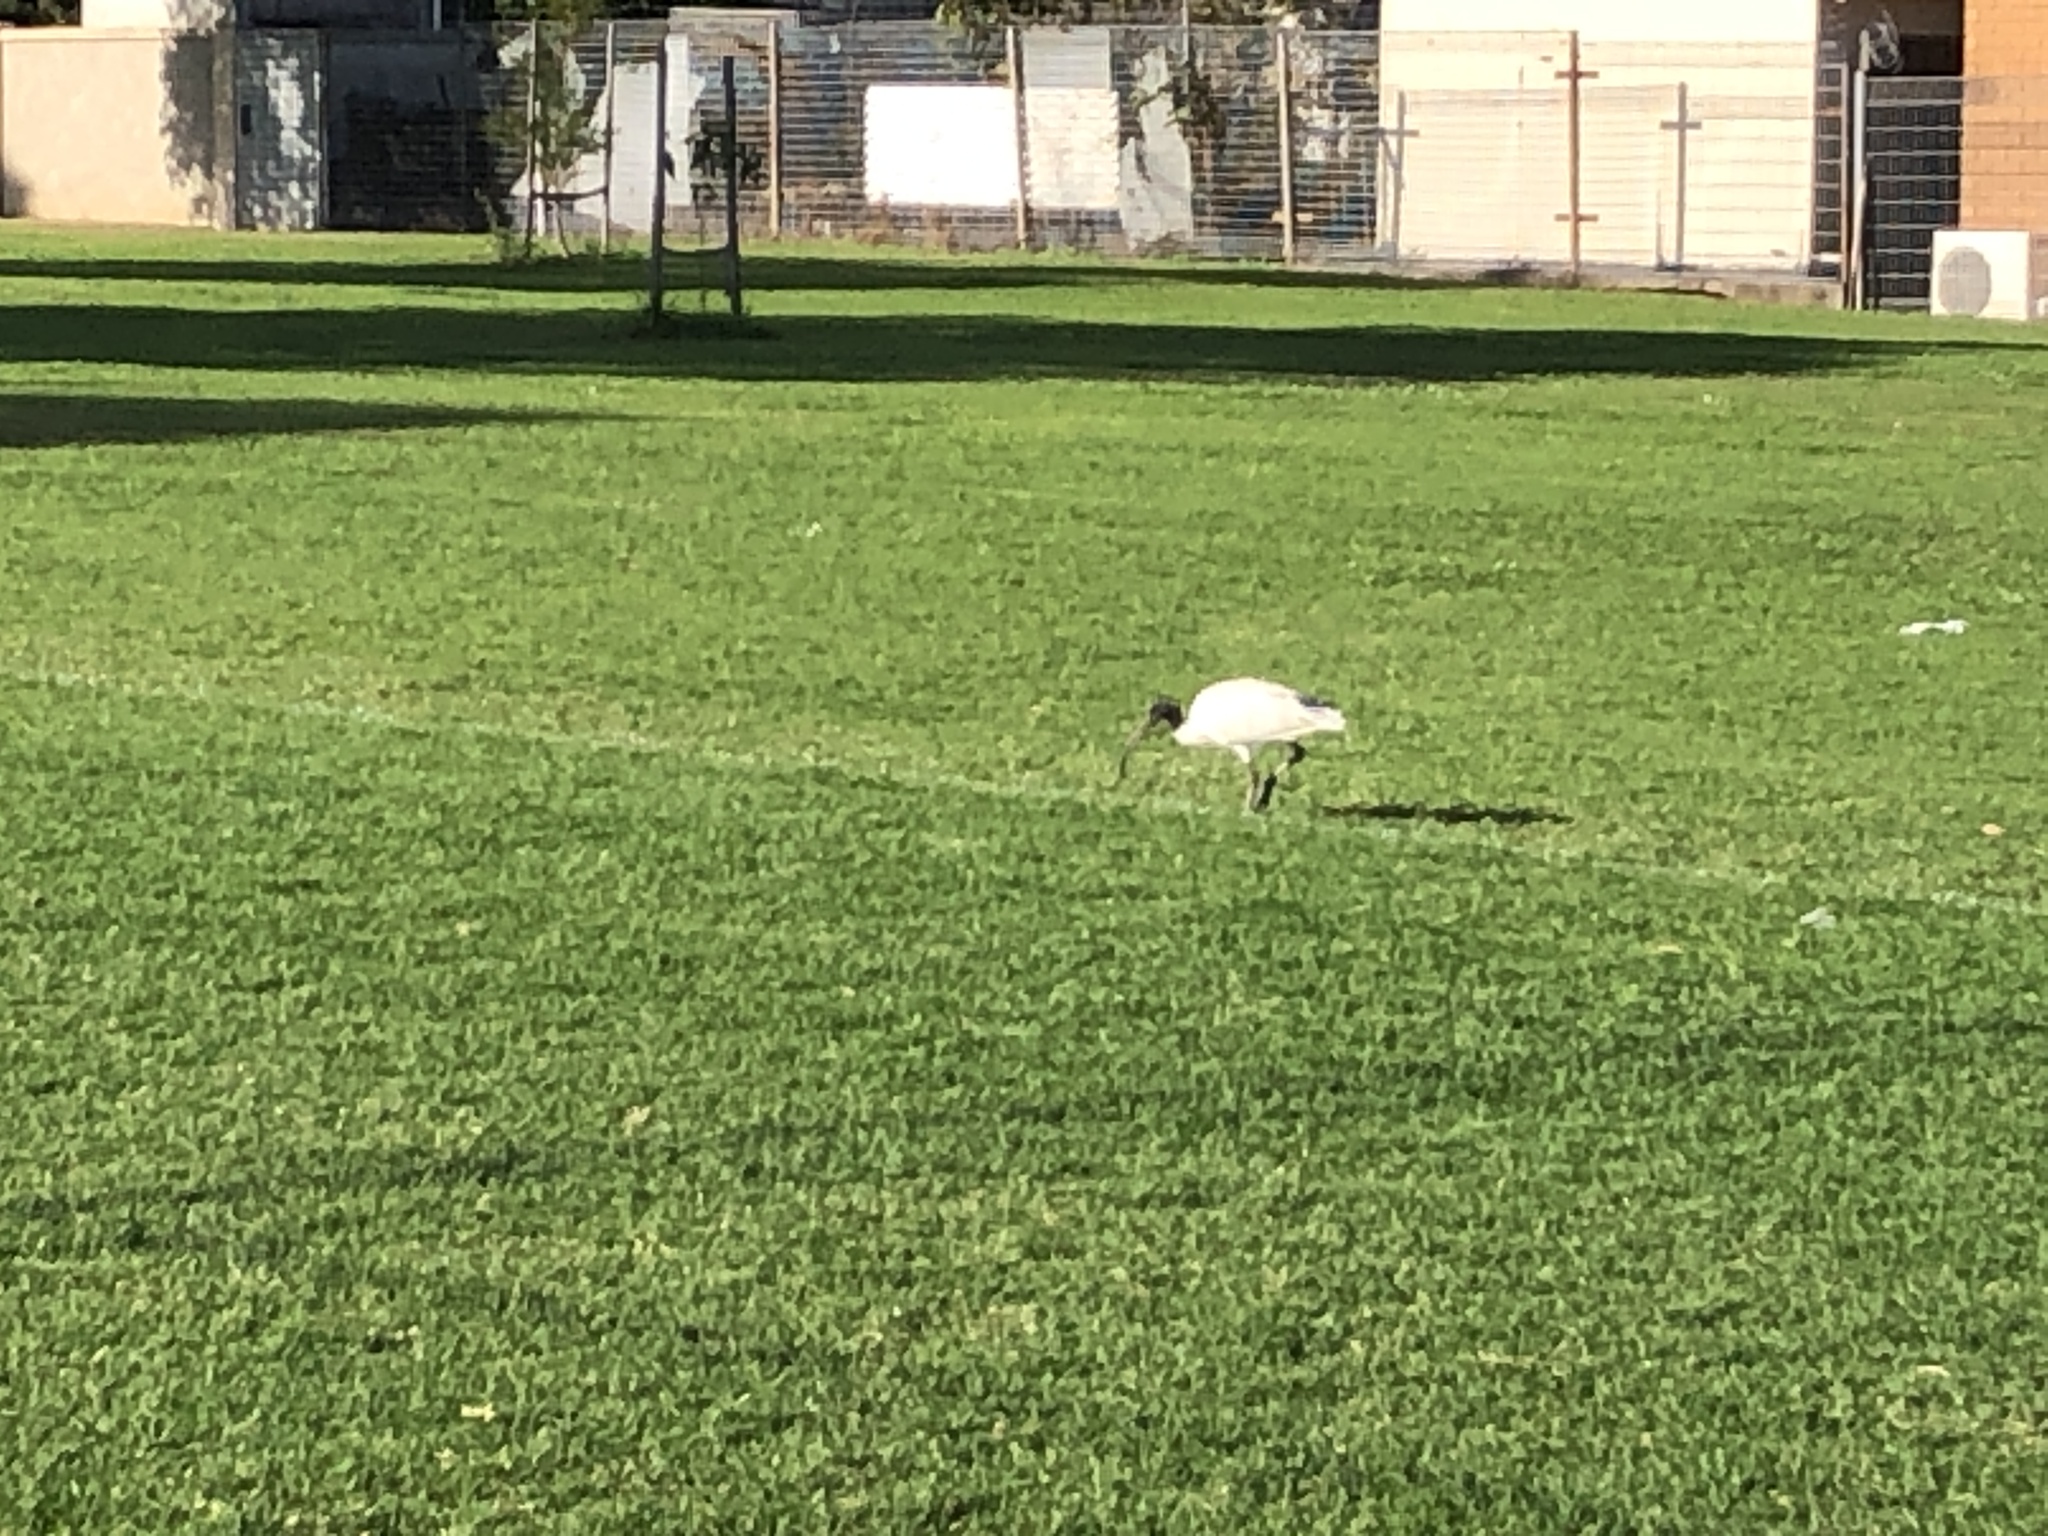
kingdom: Animalia
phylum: Chordata
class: Aves
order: Pelecaniformes
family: Threskiornithidae
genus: Threskiornis
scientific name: Threskiornis molucca
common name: Australian white ibis
